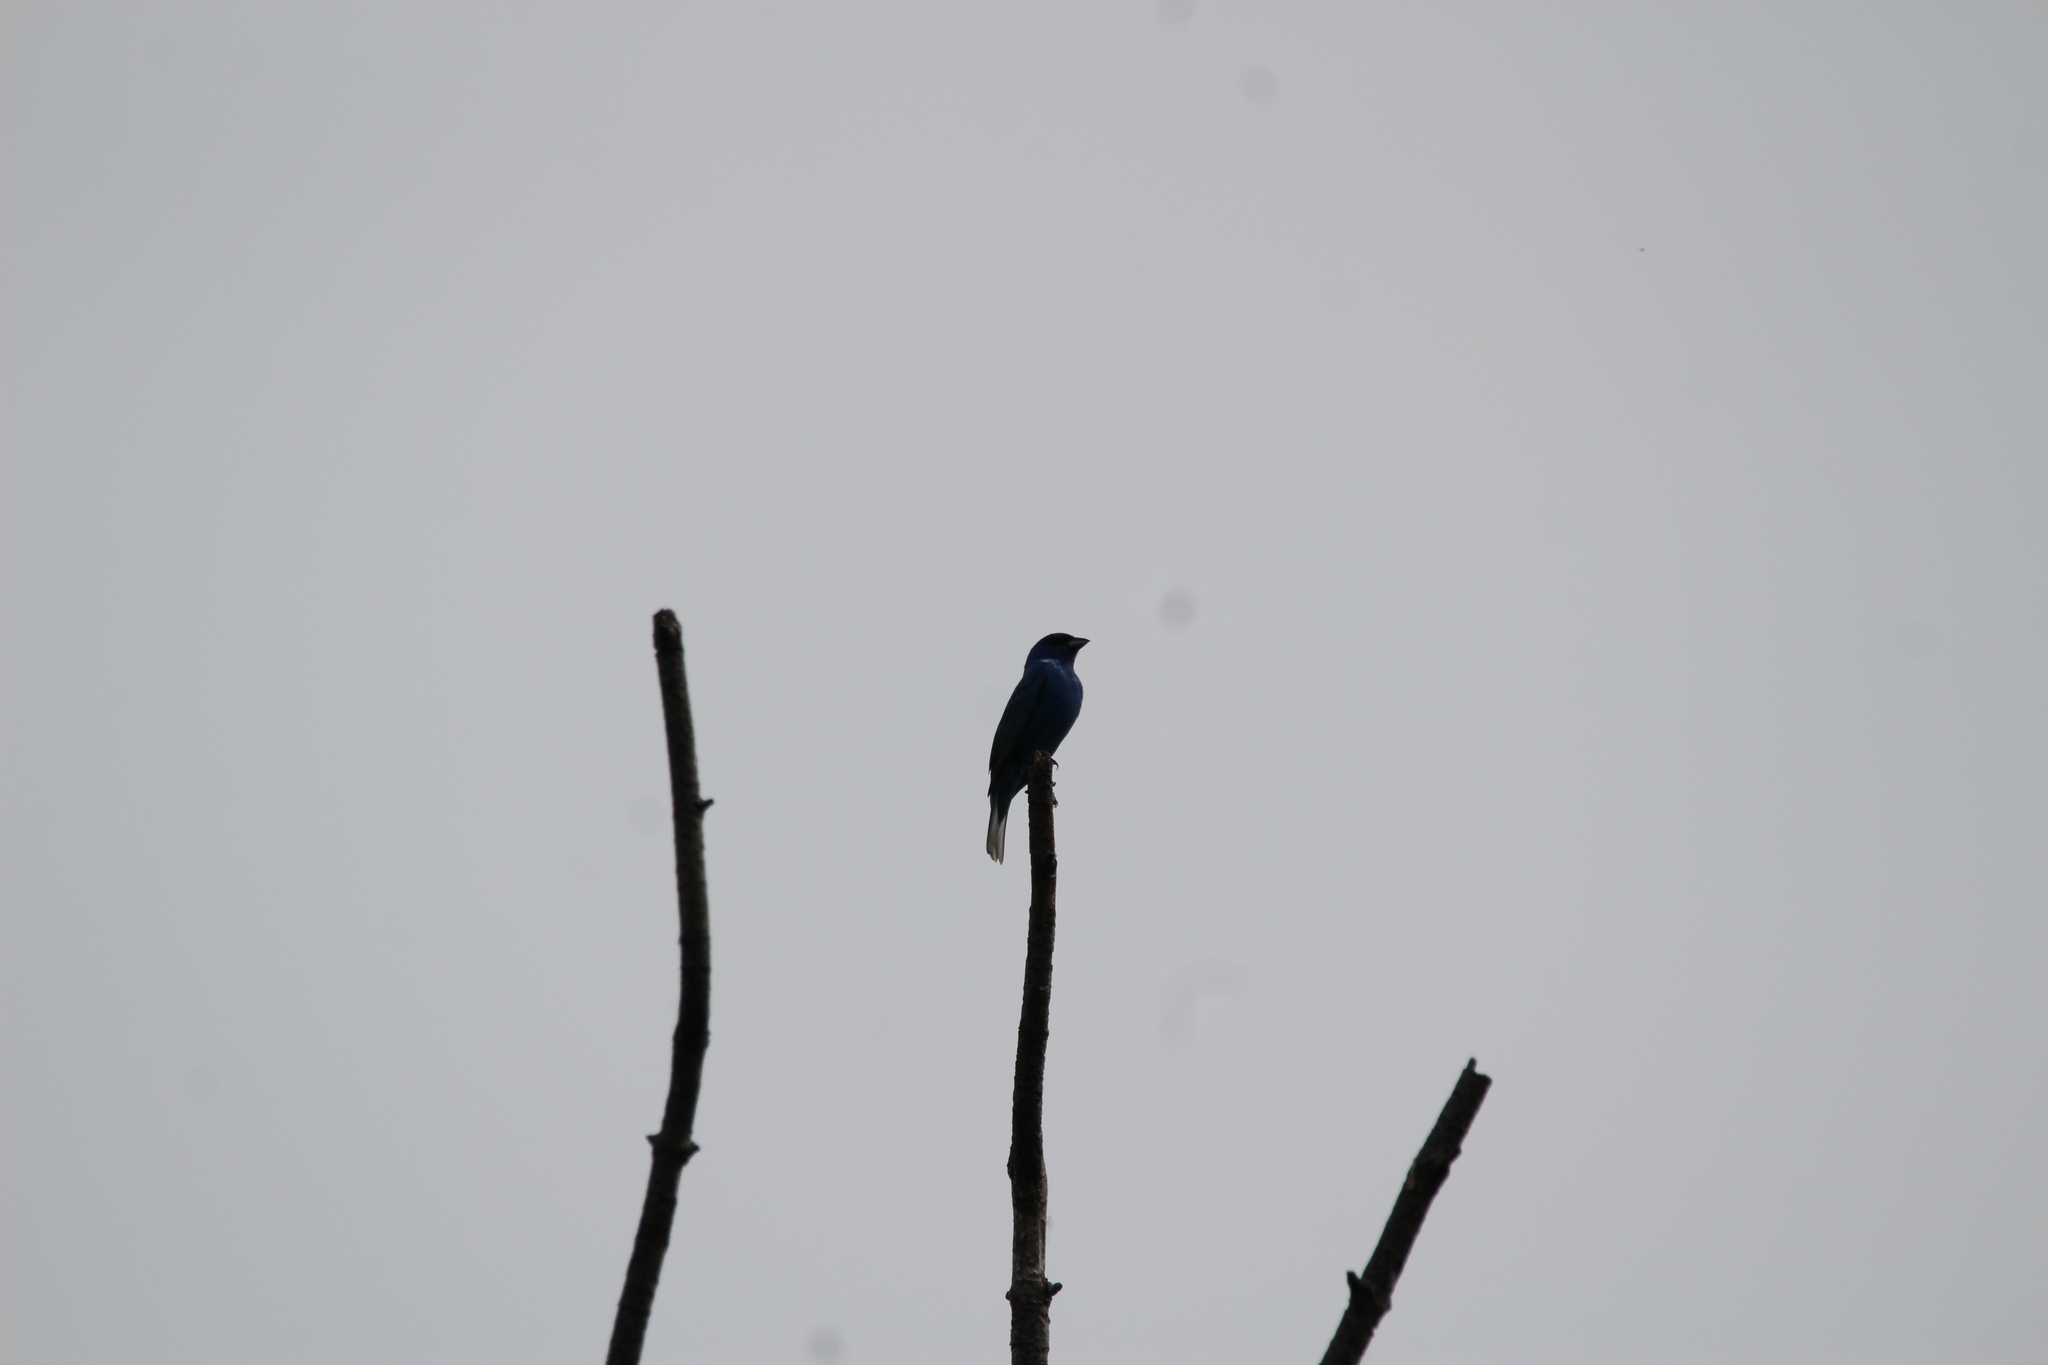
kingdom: Animalia
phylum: Chordata
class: Aves
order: Passeriformes
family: Cardinalidae
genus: Passerina
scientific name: Passerina cyanea
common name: Indigo bunting
